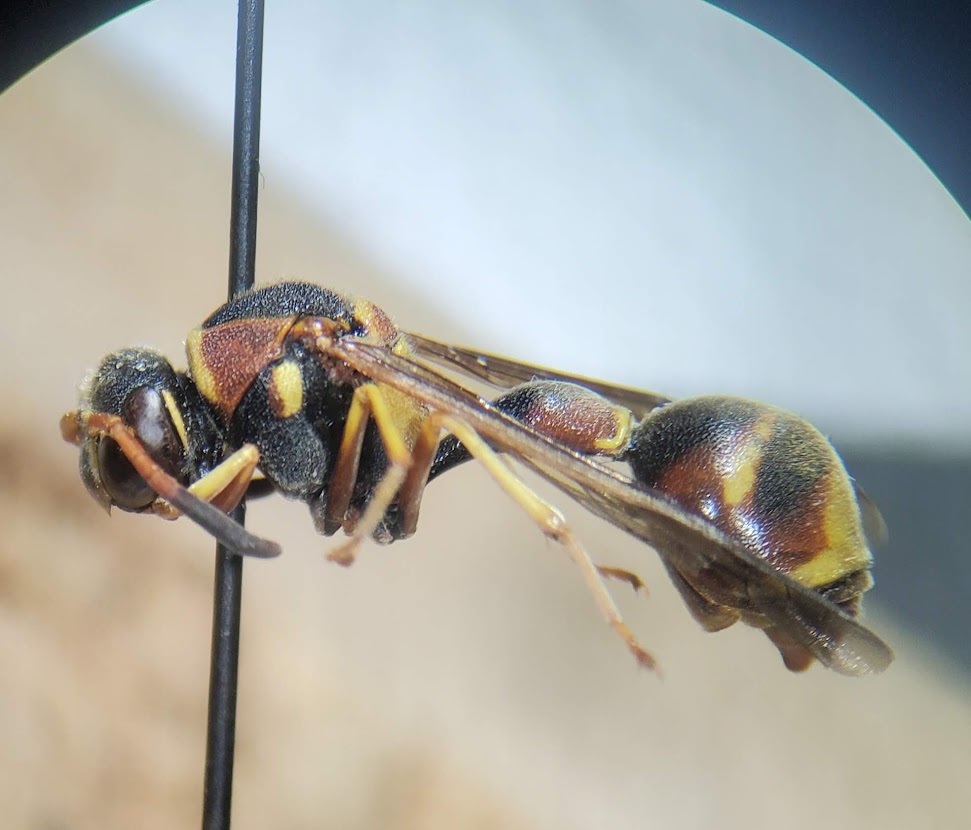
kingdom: Animalia
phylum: Arthropoda
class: Insecta
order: Hymenoptera
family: Vespidae
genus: Eumenes
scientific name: Eumenes smithii
